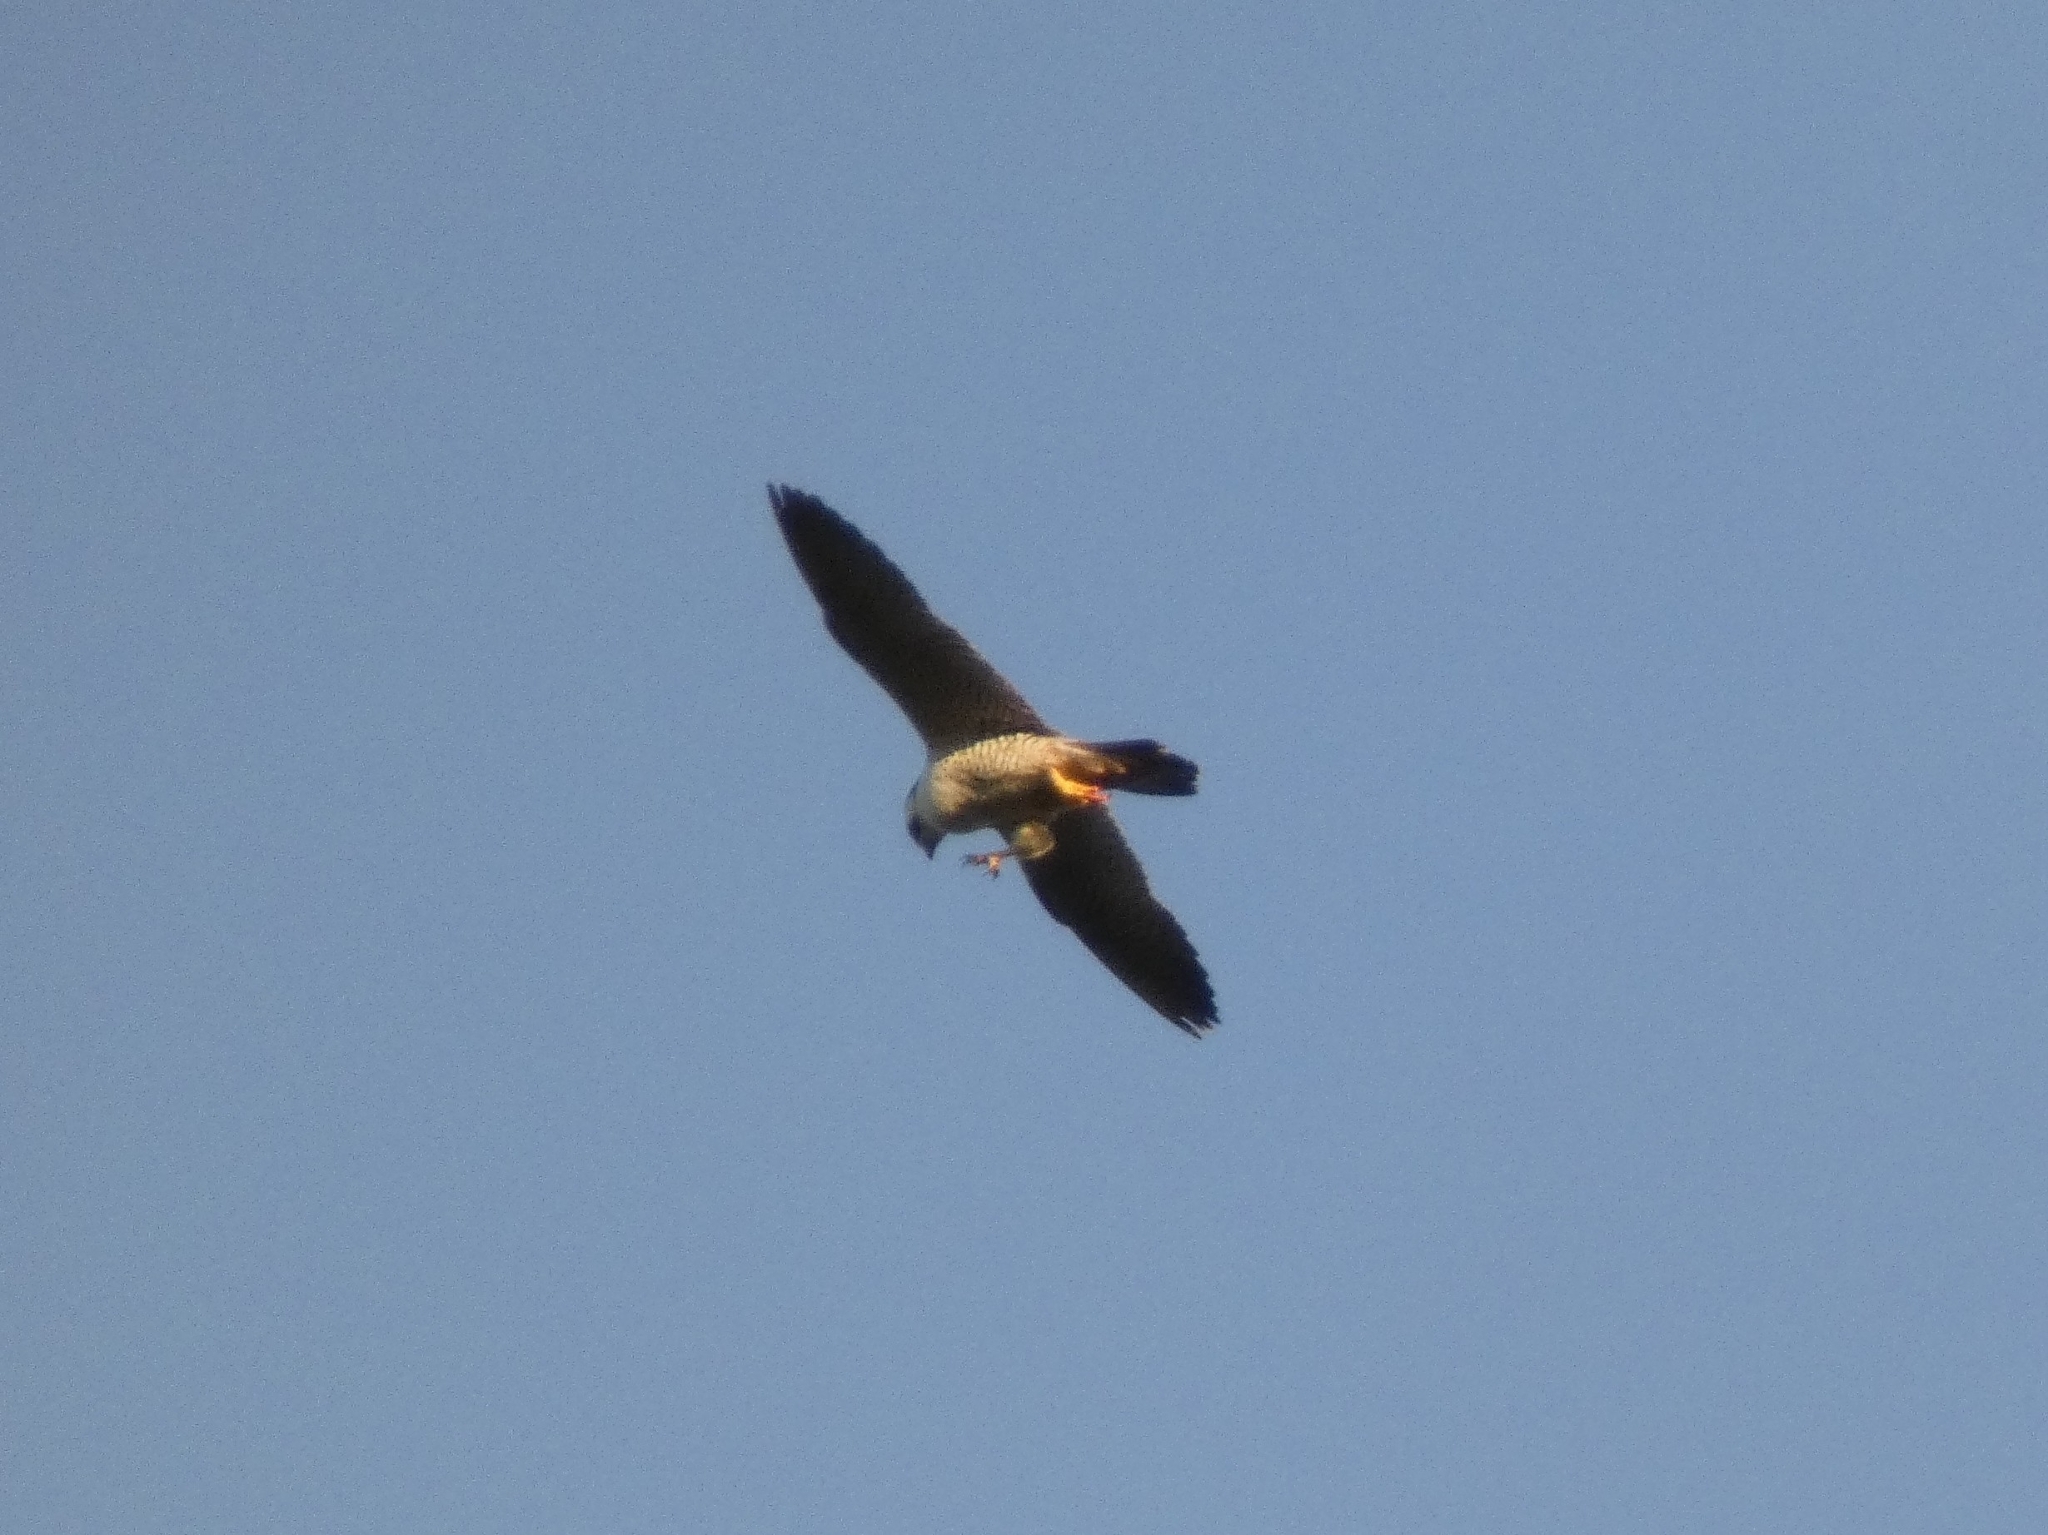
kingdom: Animalia
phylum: Chordata
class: Aves
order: Falconiformes
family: Falconidae
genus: Falco
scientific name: Falco peregrinus
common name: Peregrine falcon
